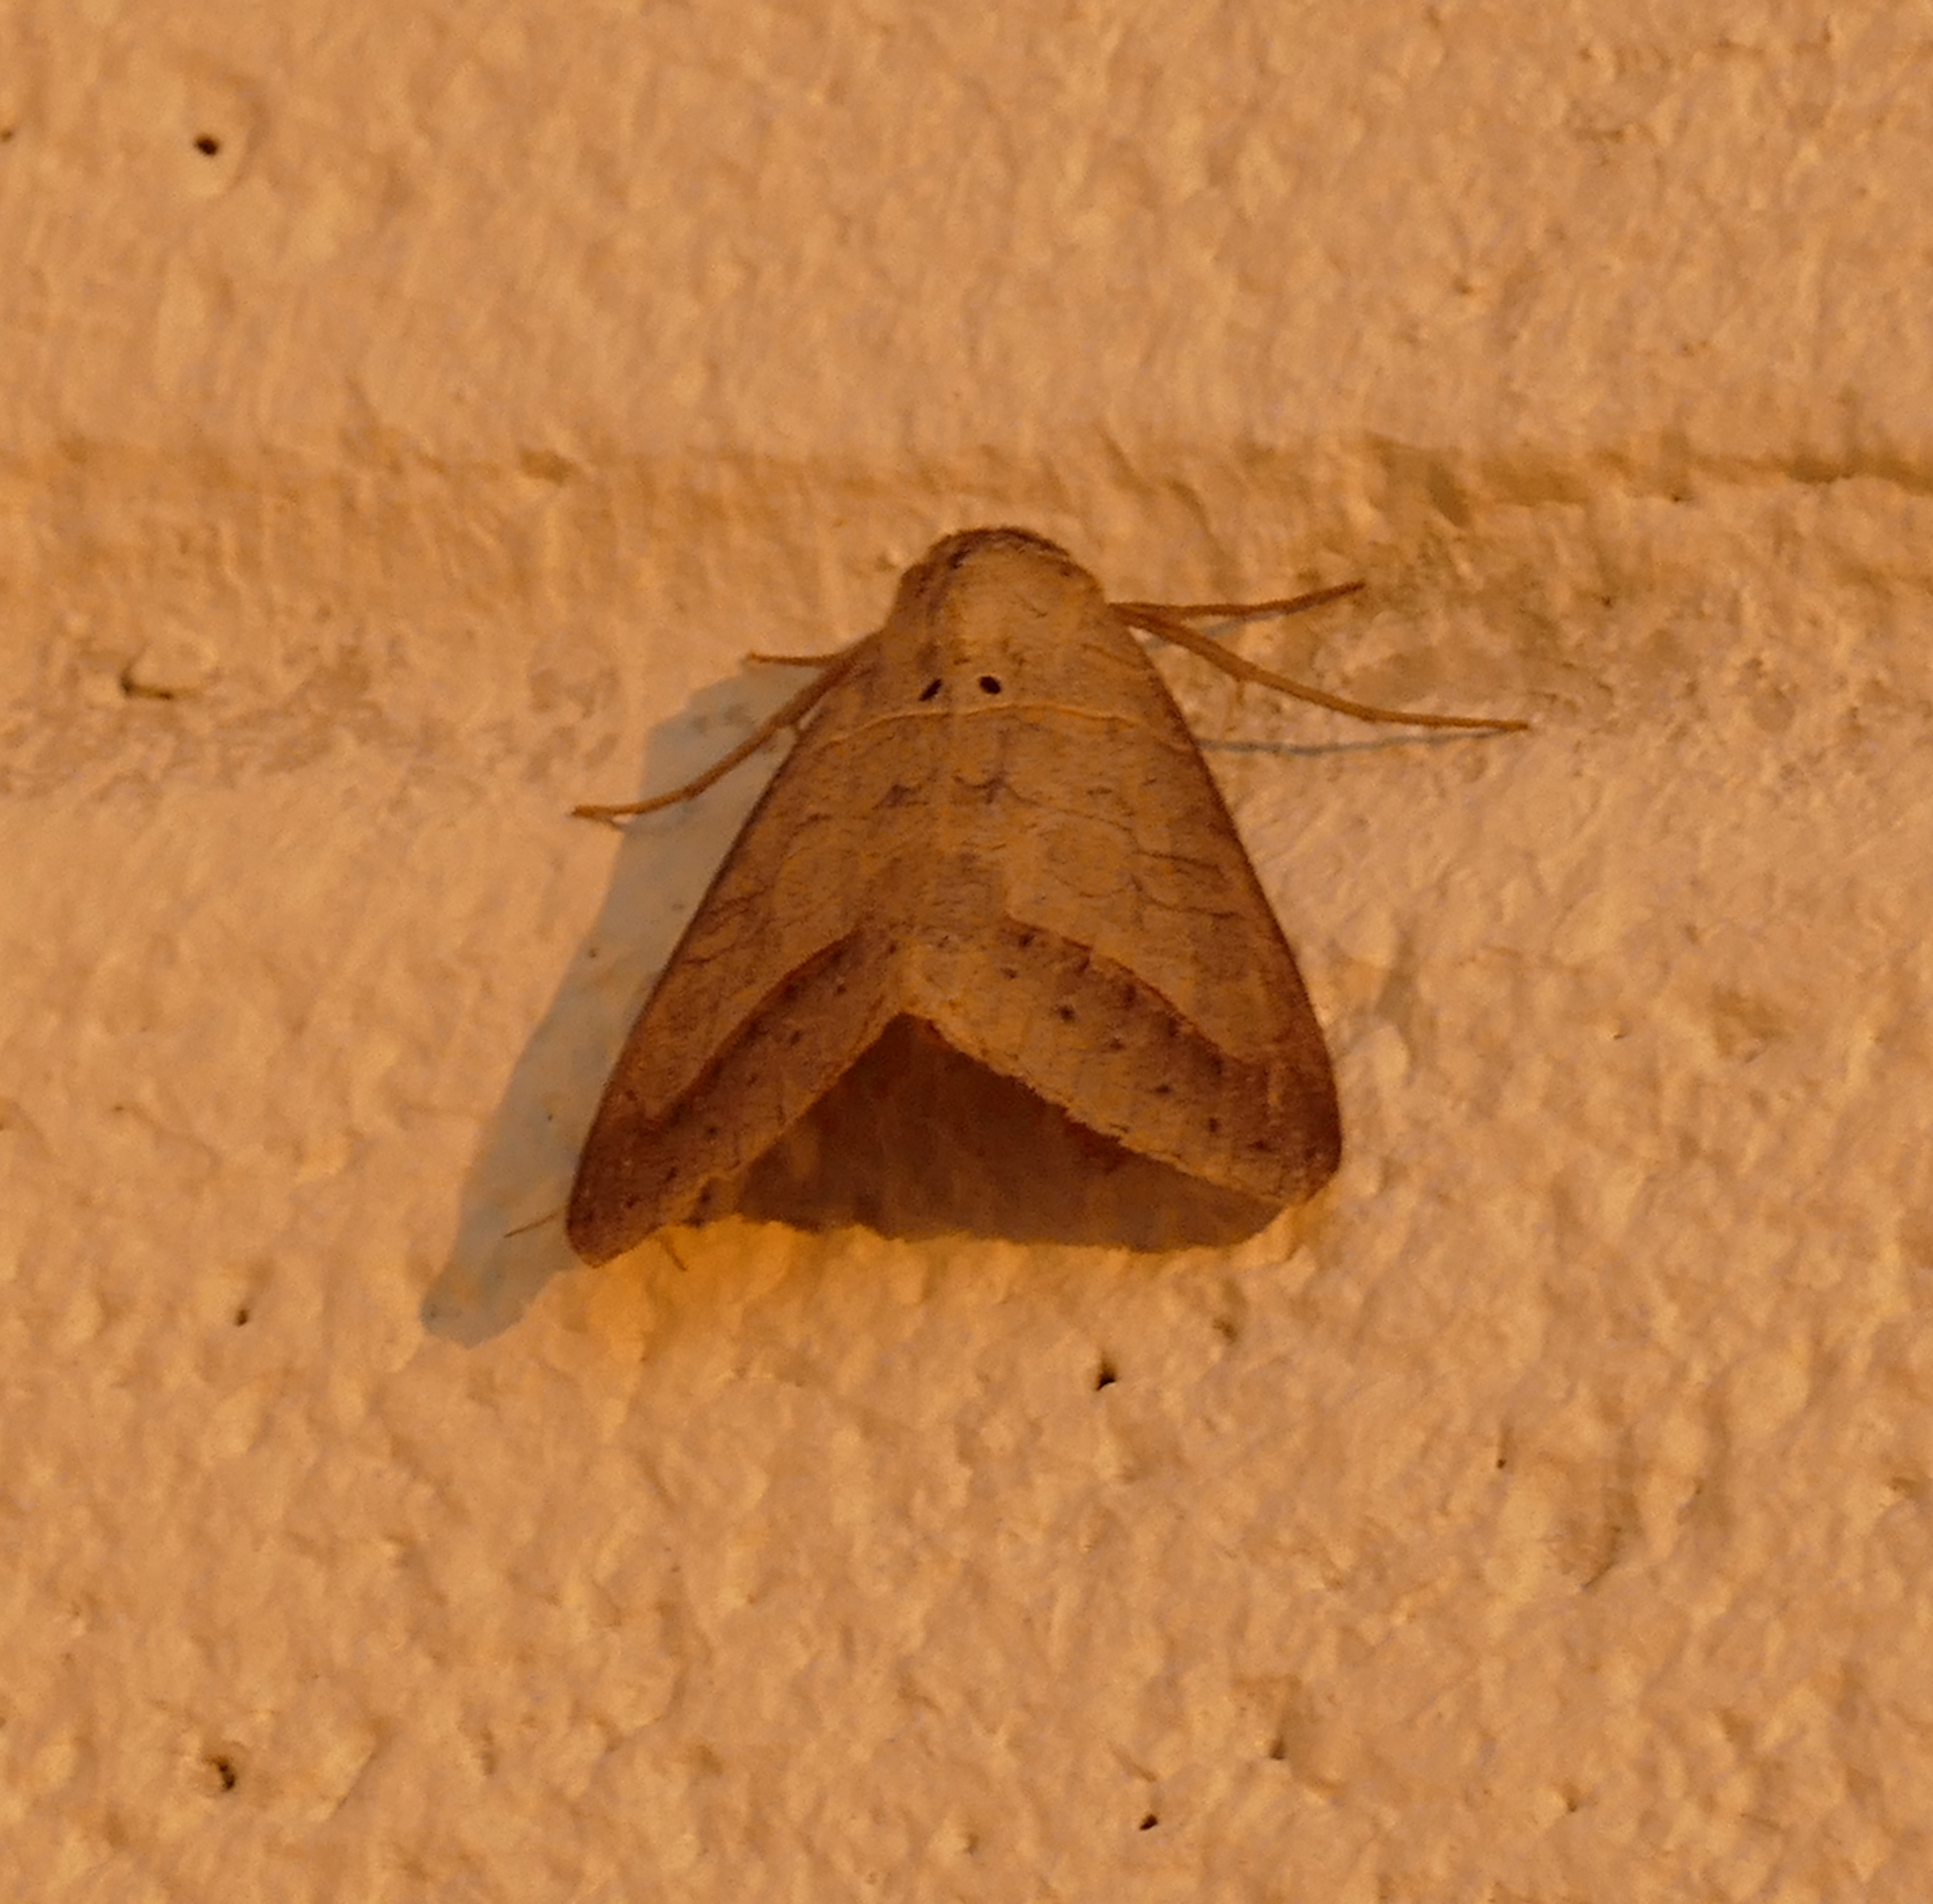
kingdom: Animalia
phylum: Arthropoda
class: Insecta
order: Lepidoptera
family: Erebidae
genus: Mocis
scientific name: Mocis marcida
